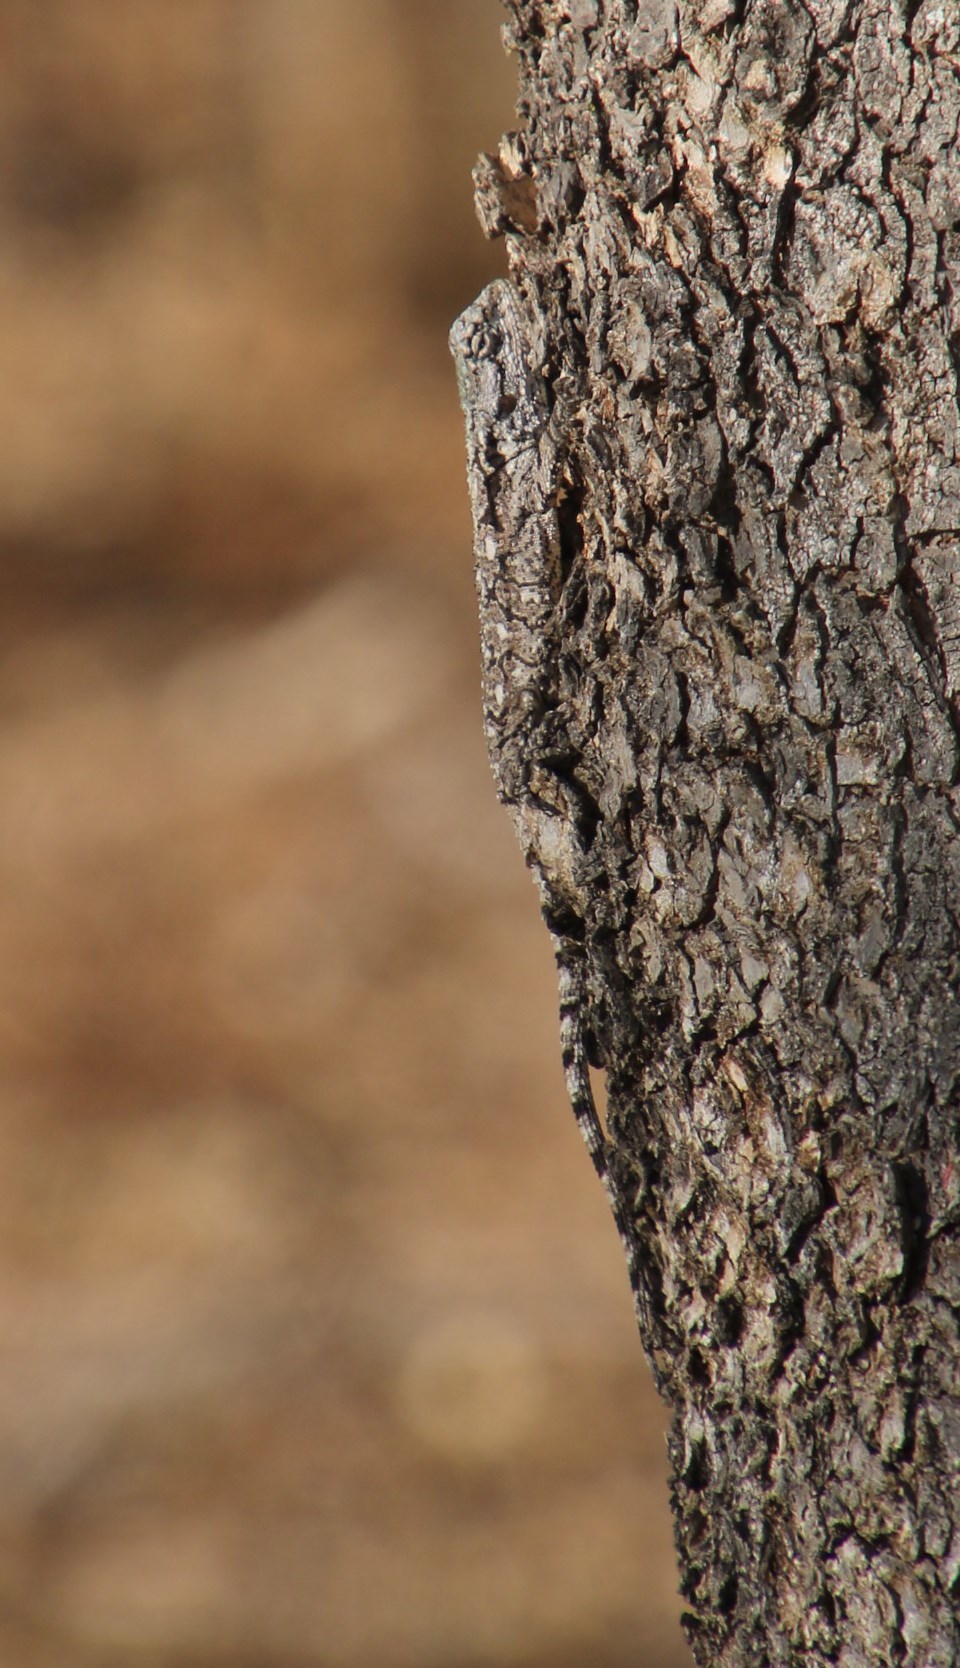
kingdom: Animalia
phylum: Chordata
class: Squamata
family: Agamidae
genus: Acanthocercus
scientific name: Acanthocercus atricollis
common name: Southern tree agama
